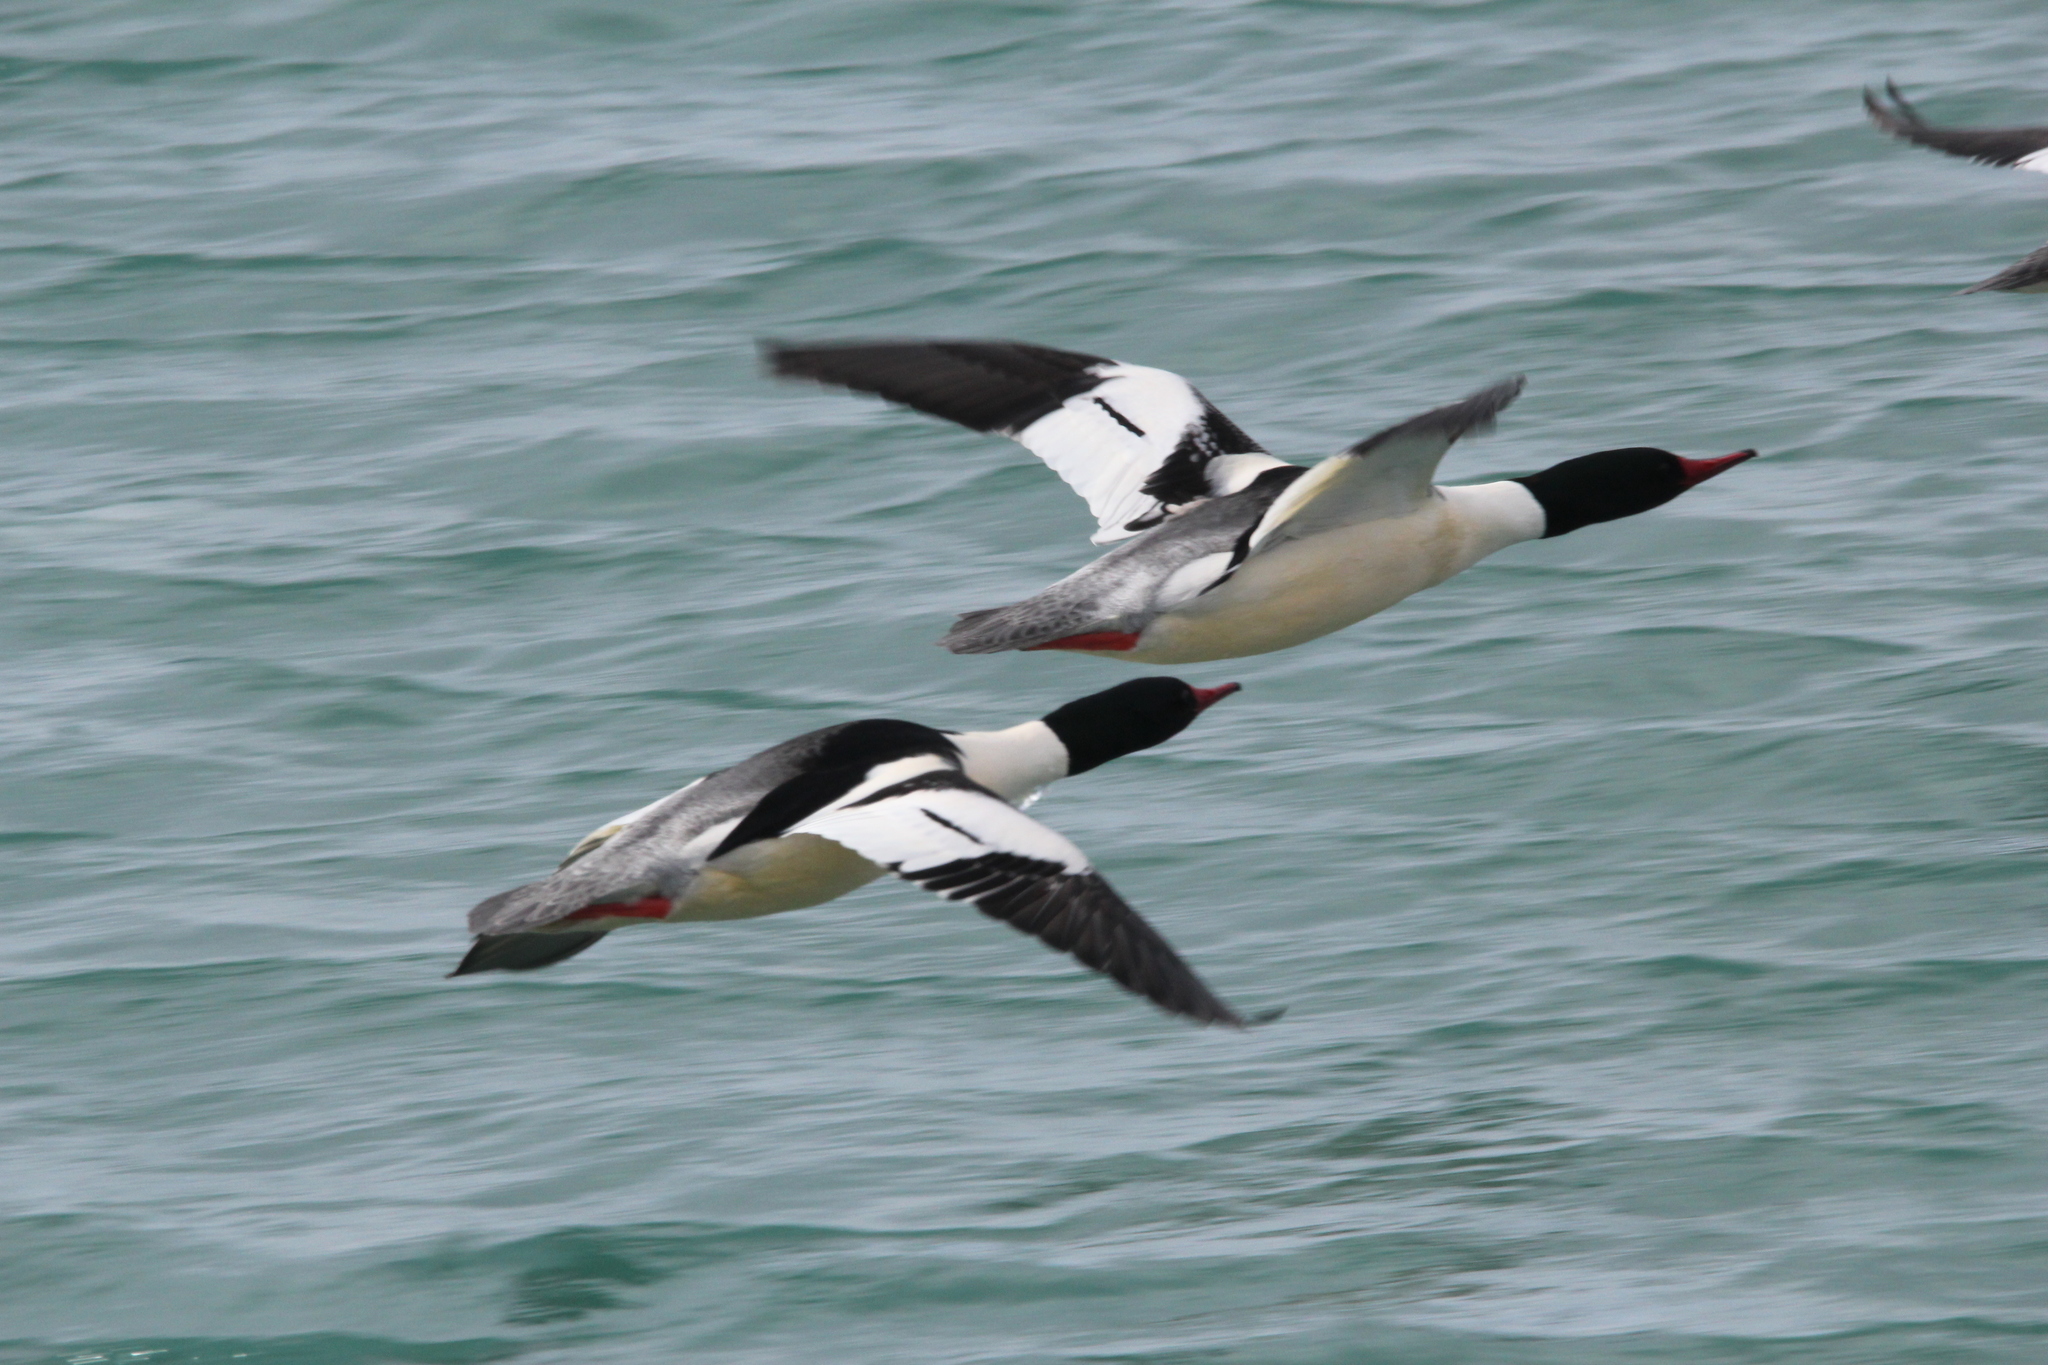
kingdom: Animalia
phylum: Chordata
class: Aves
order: Anseriformes
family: Anatidae
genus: Mergus
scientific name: Mergus merganser
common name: Common merganser
